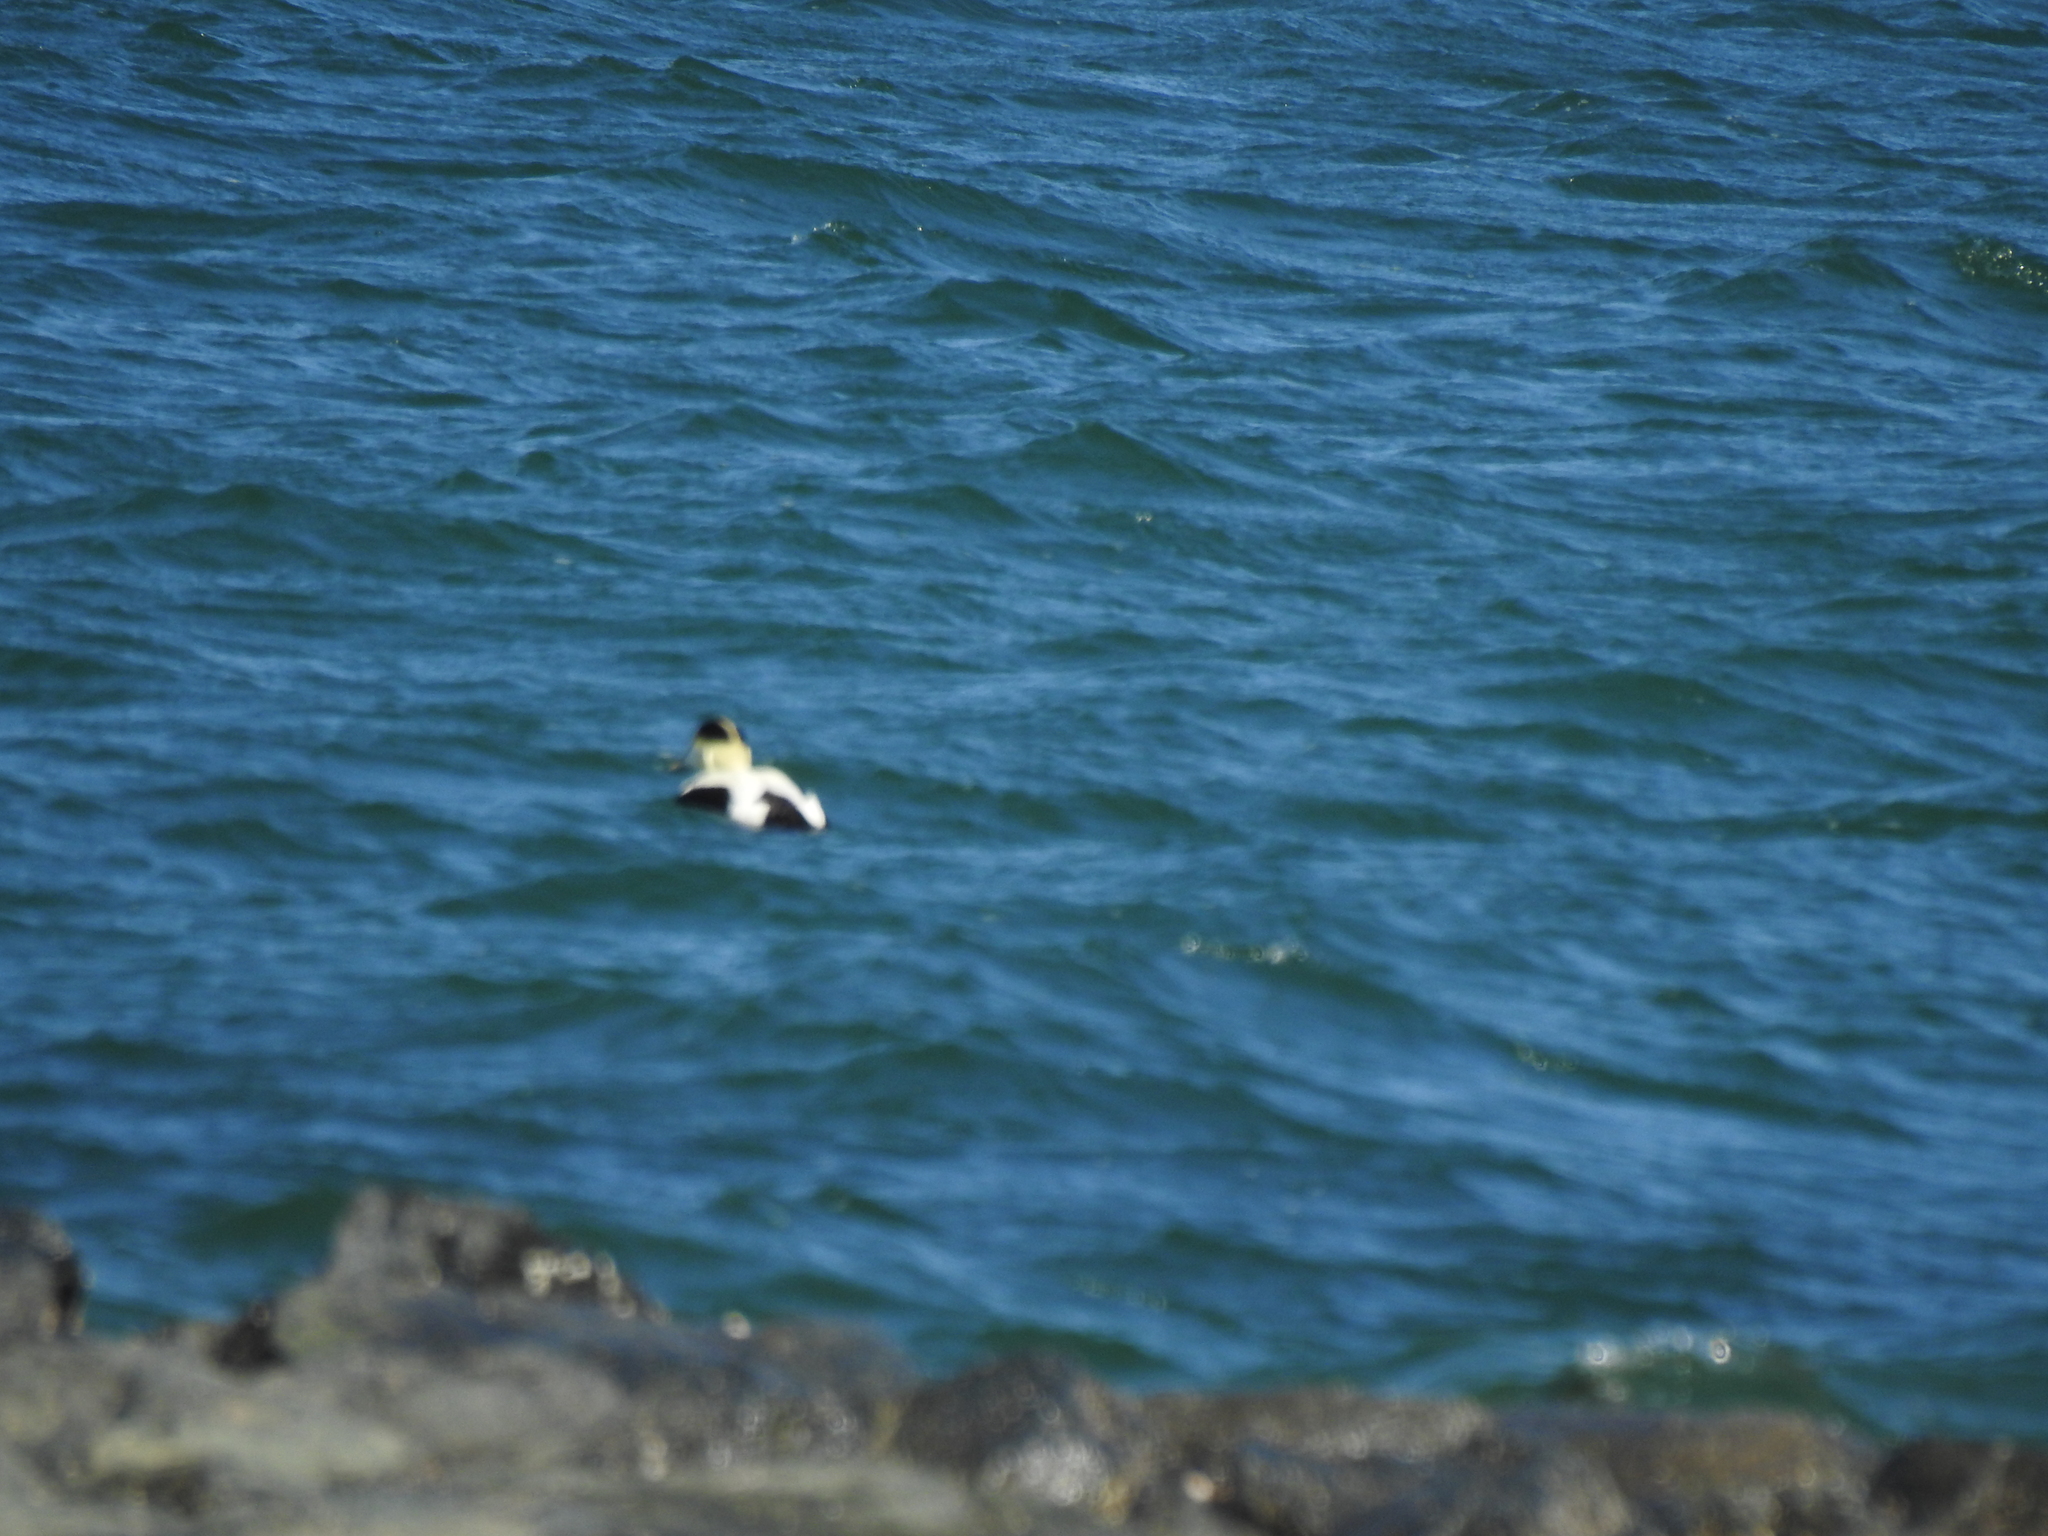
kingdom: Animalia
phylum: Chordata
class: Aves
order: Anseriformes
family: Anatidae
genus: Somateria
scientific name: Somateria mollissima
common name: Common eider
